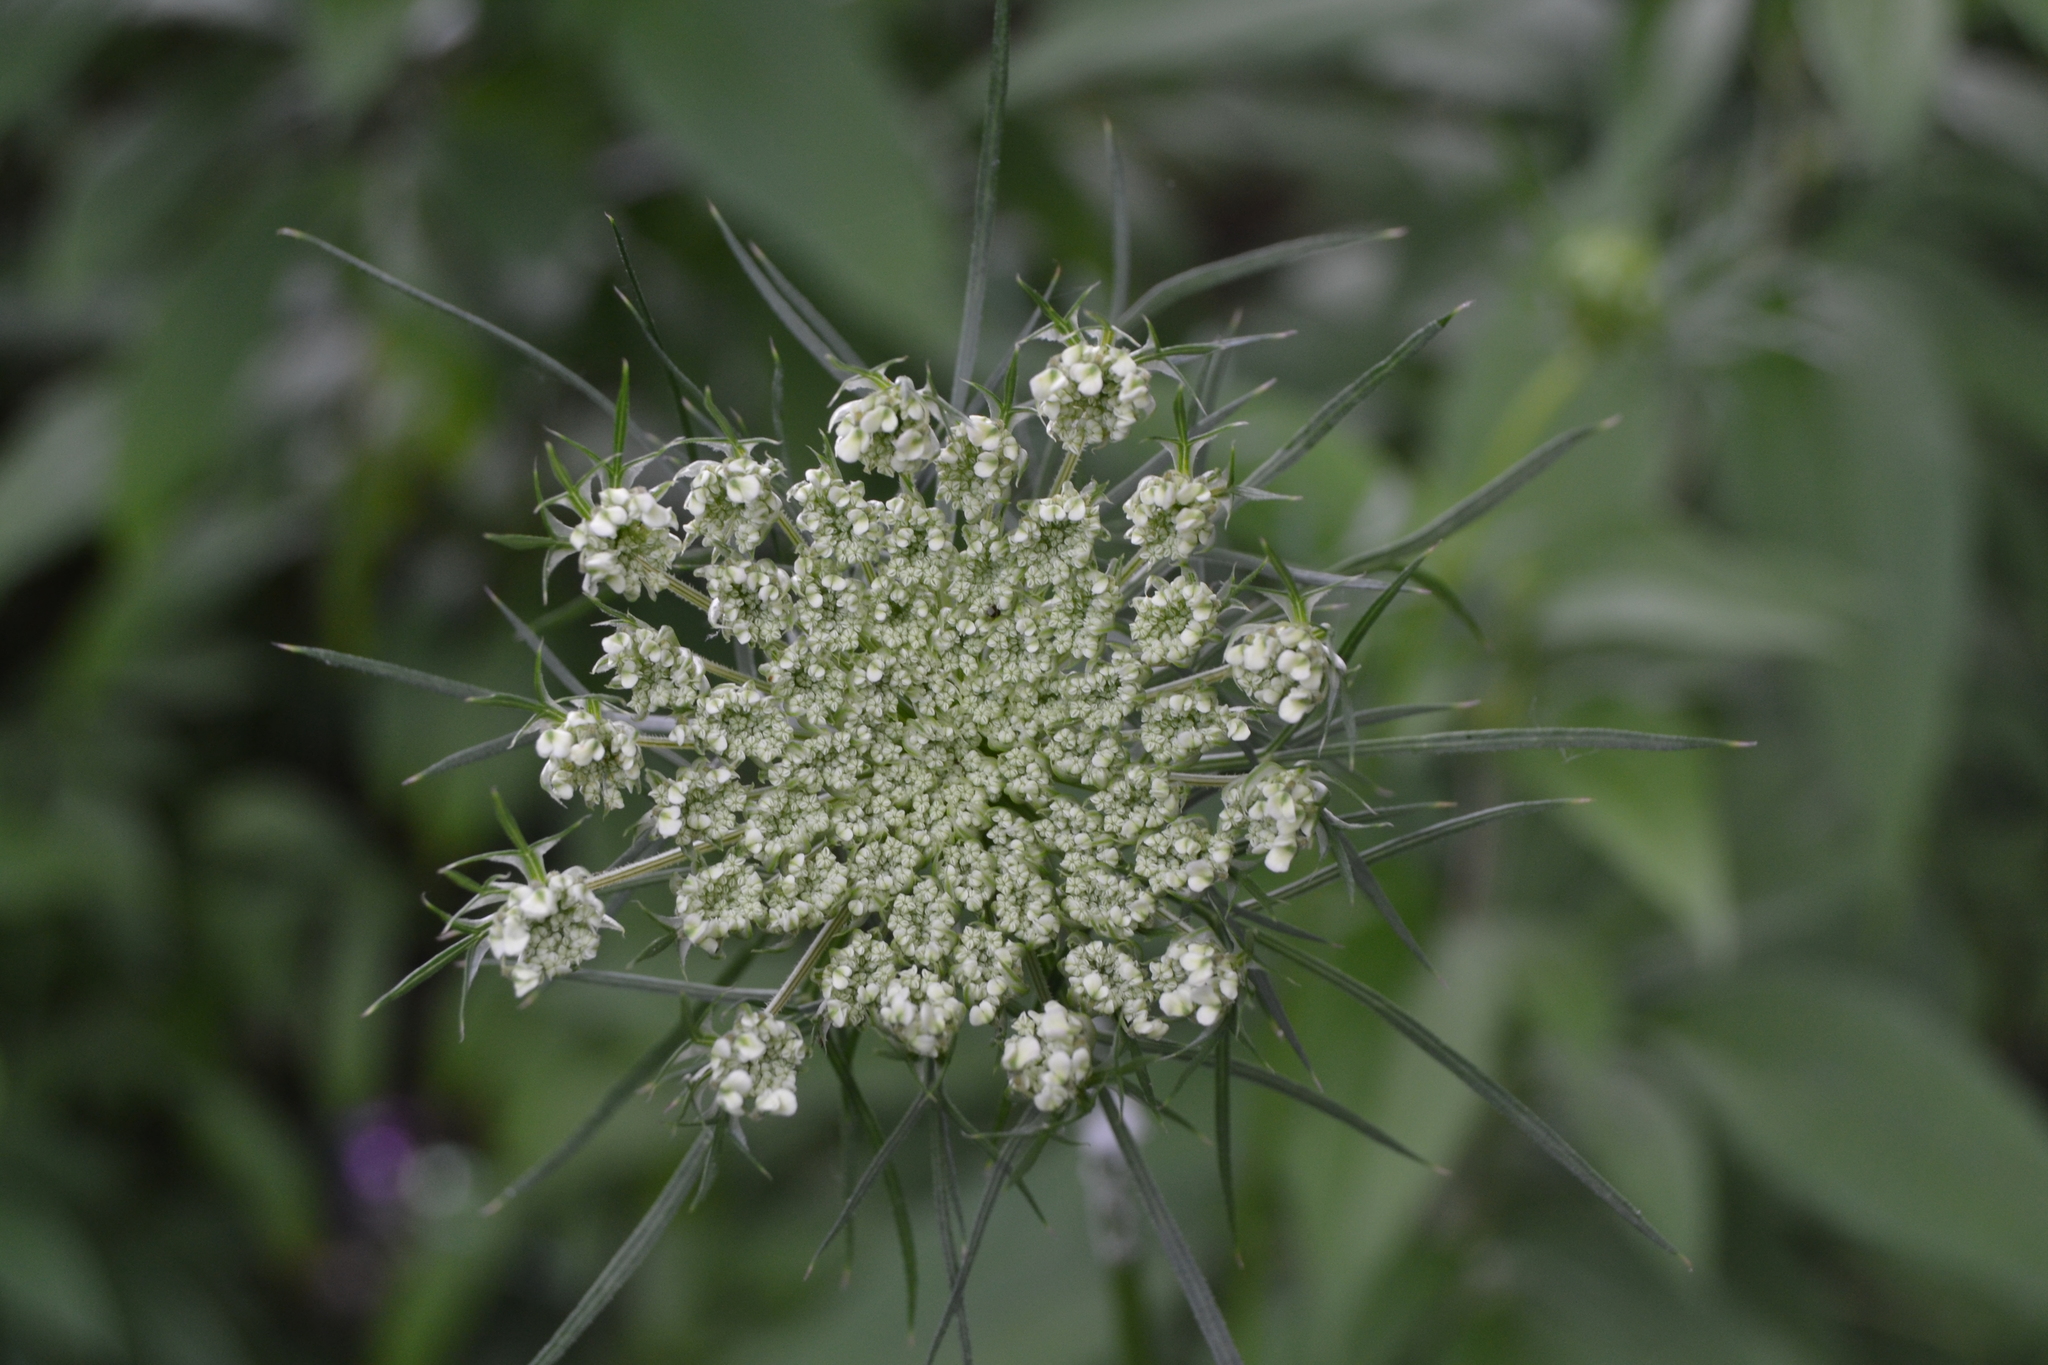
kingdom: Plantae
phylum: Tracheophyta
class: Magnoliopsida
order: Apiales
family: Apiaceae
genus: Daucus
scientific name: Daucus carota
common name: Wild carrot
